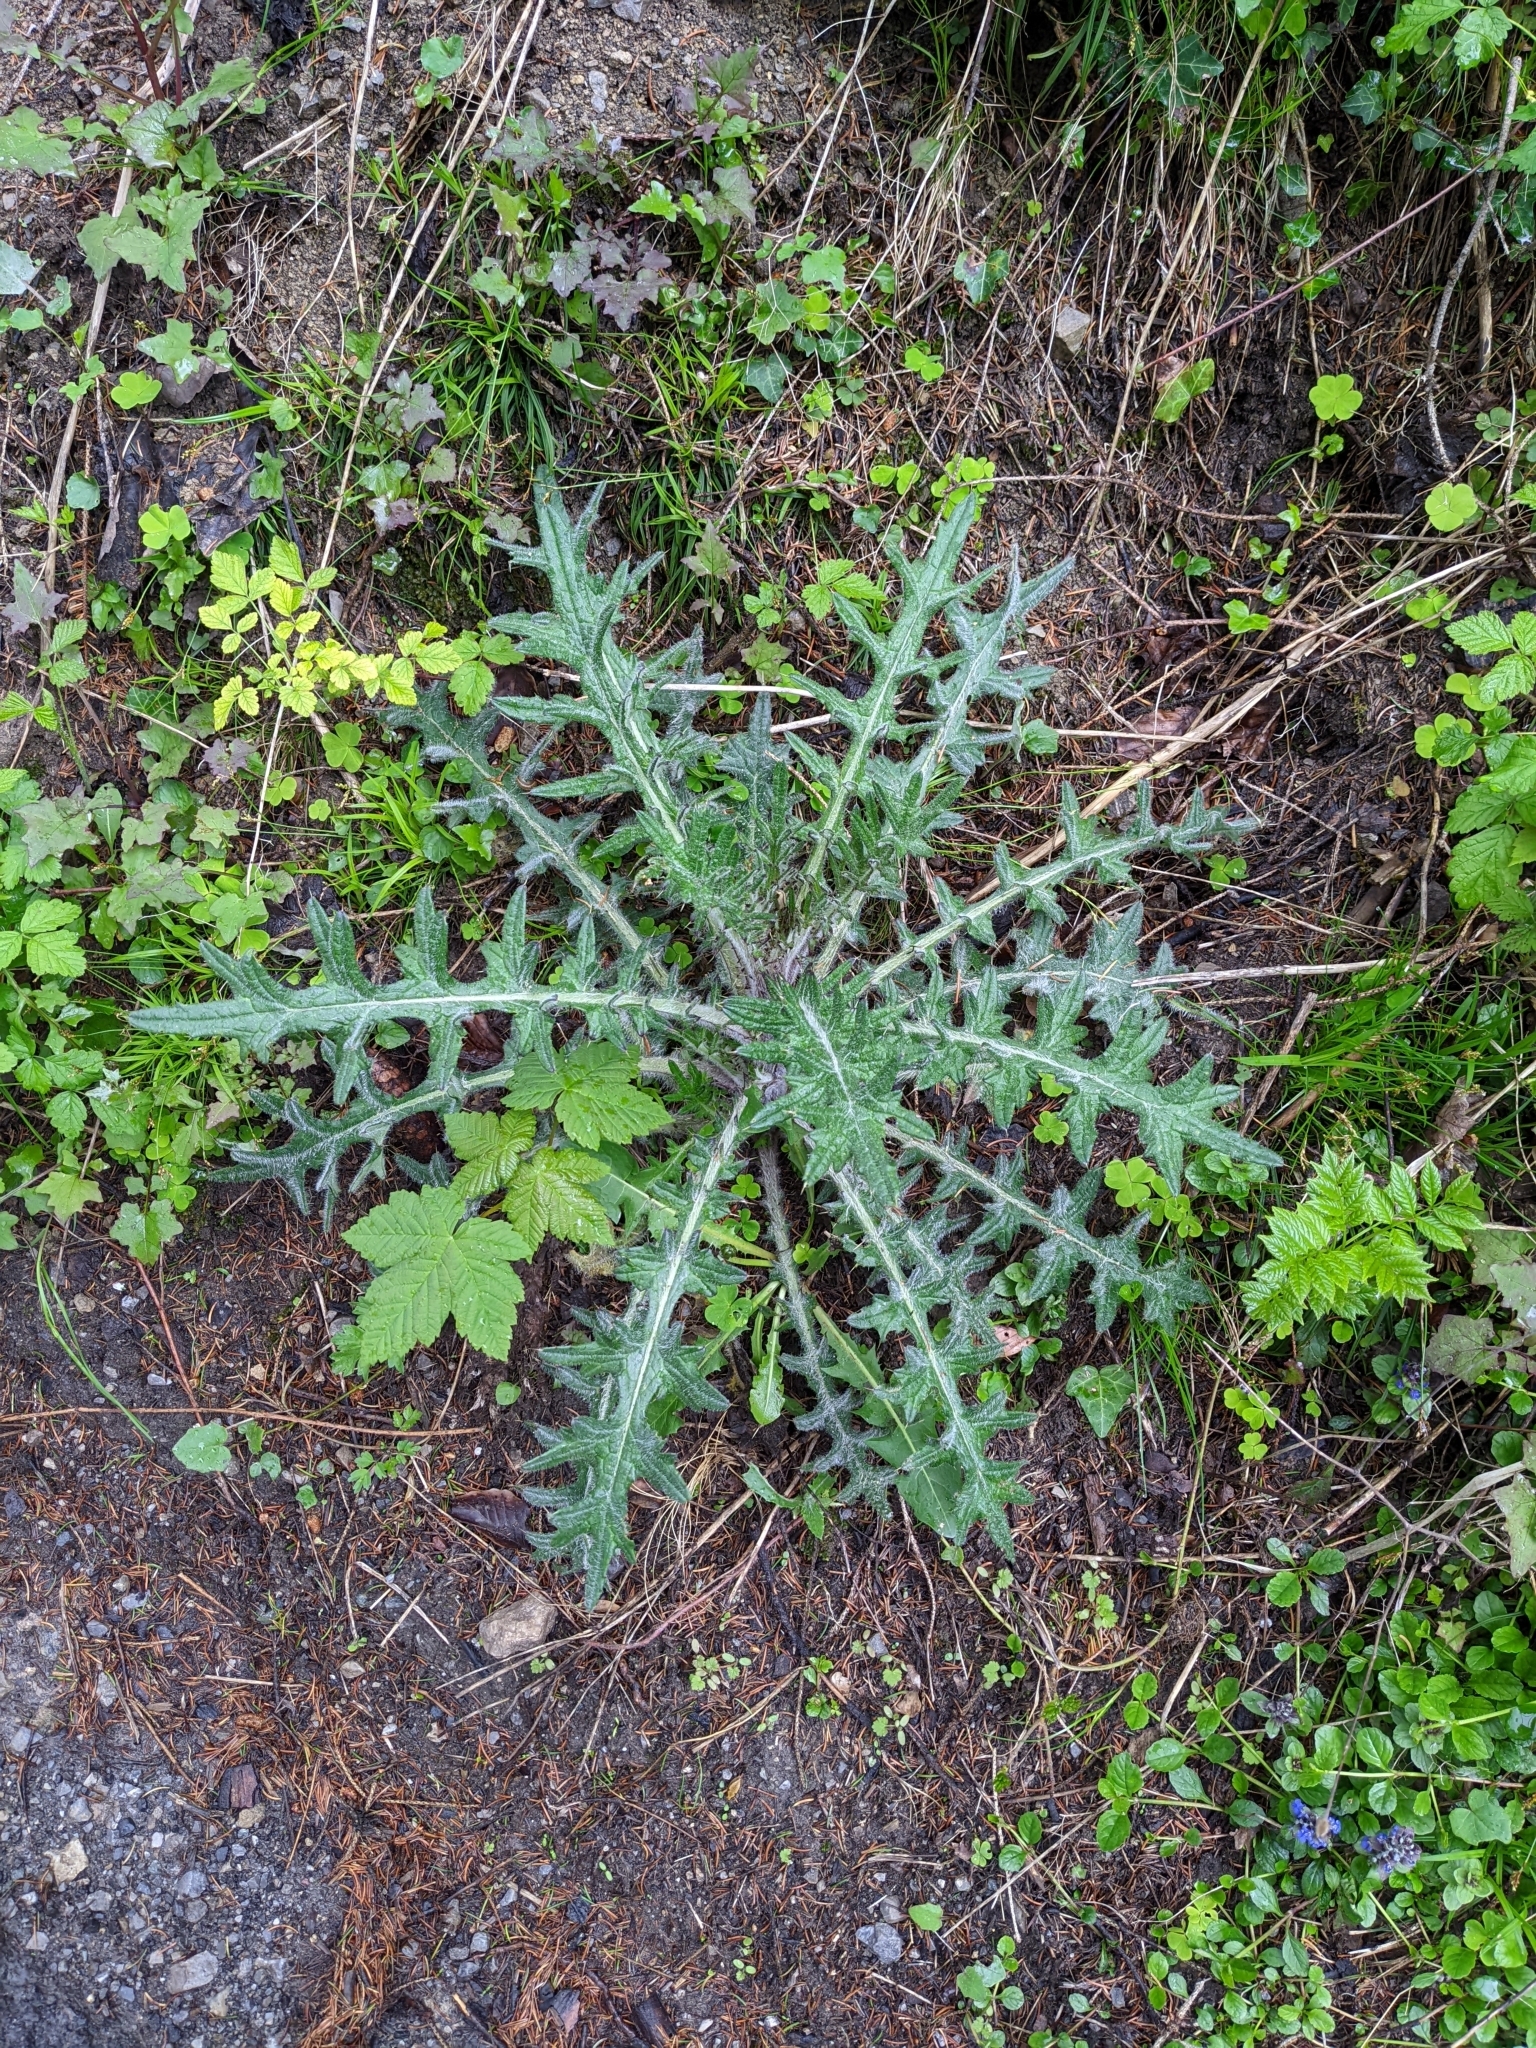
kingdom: Plantae
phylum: Tracheophyta
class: Magnoliopsida
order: Asterales
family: Asteraceae
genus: Cirsium
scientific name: Cirsium vulgare
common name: Bull thistle
